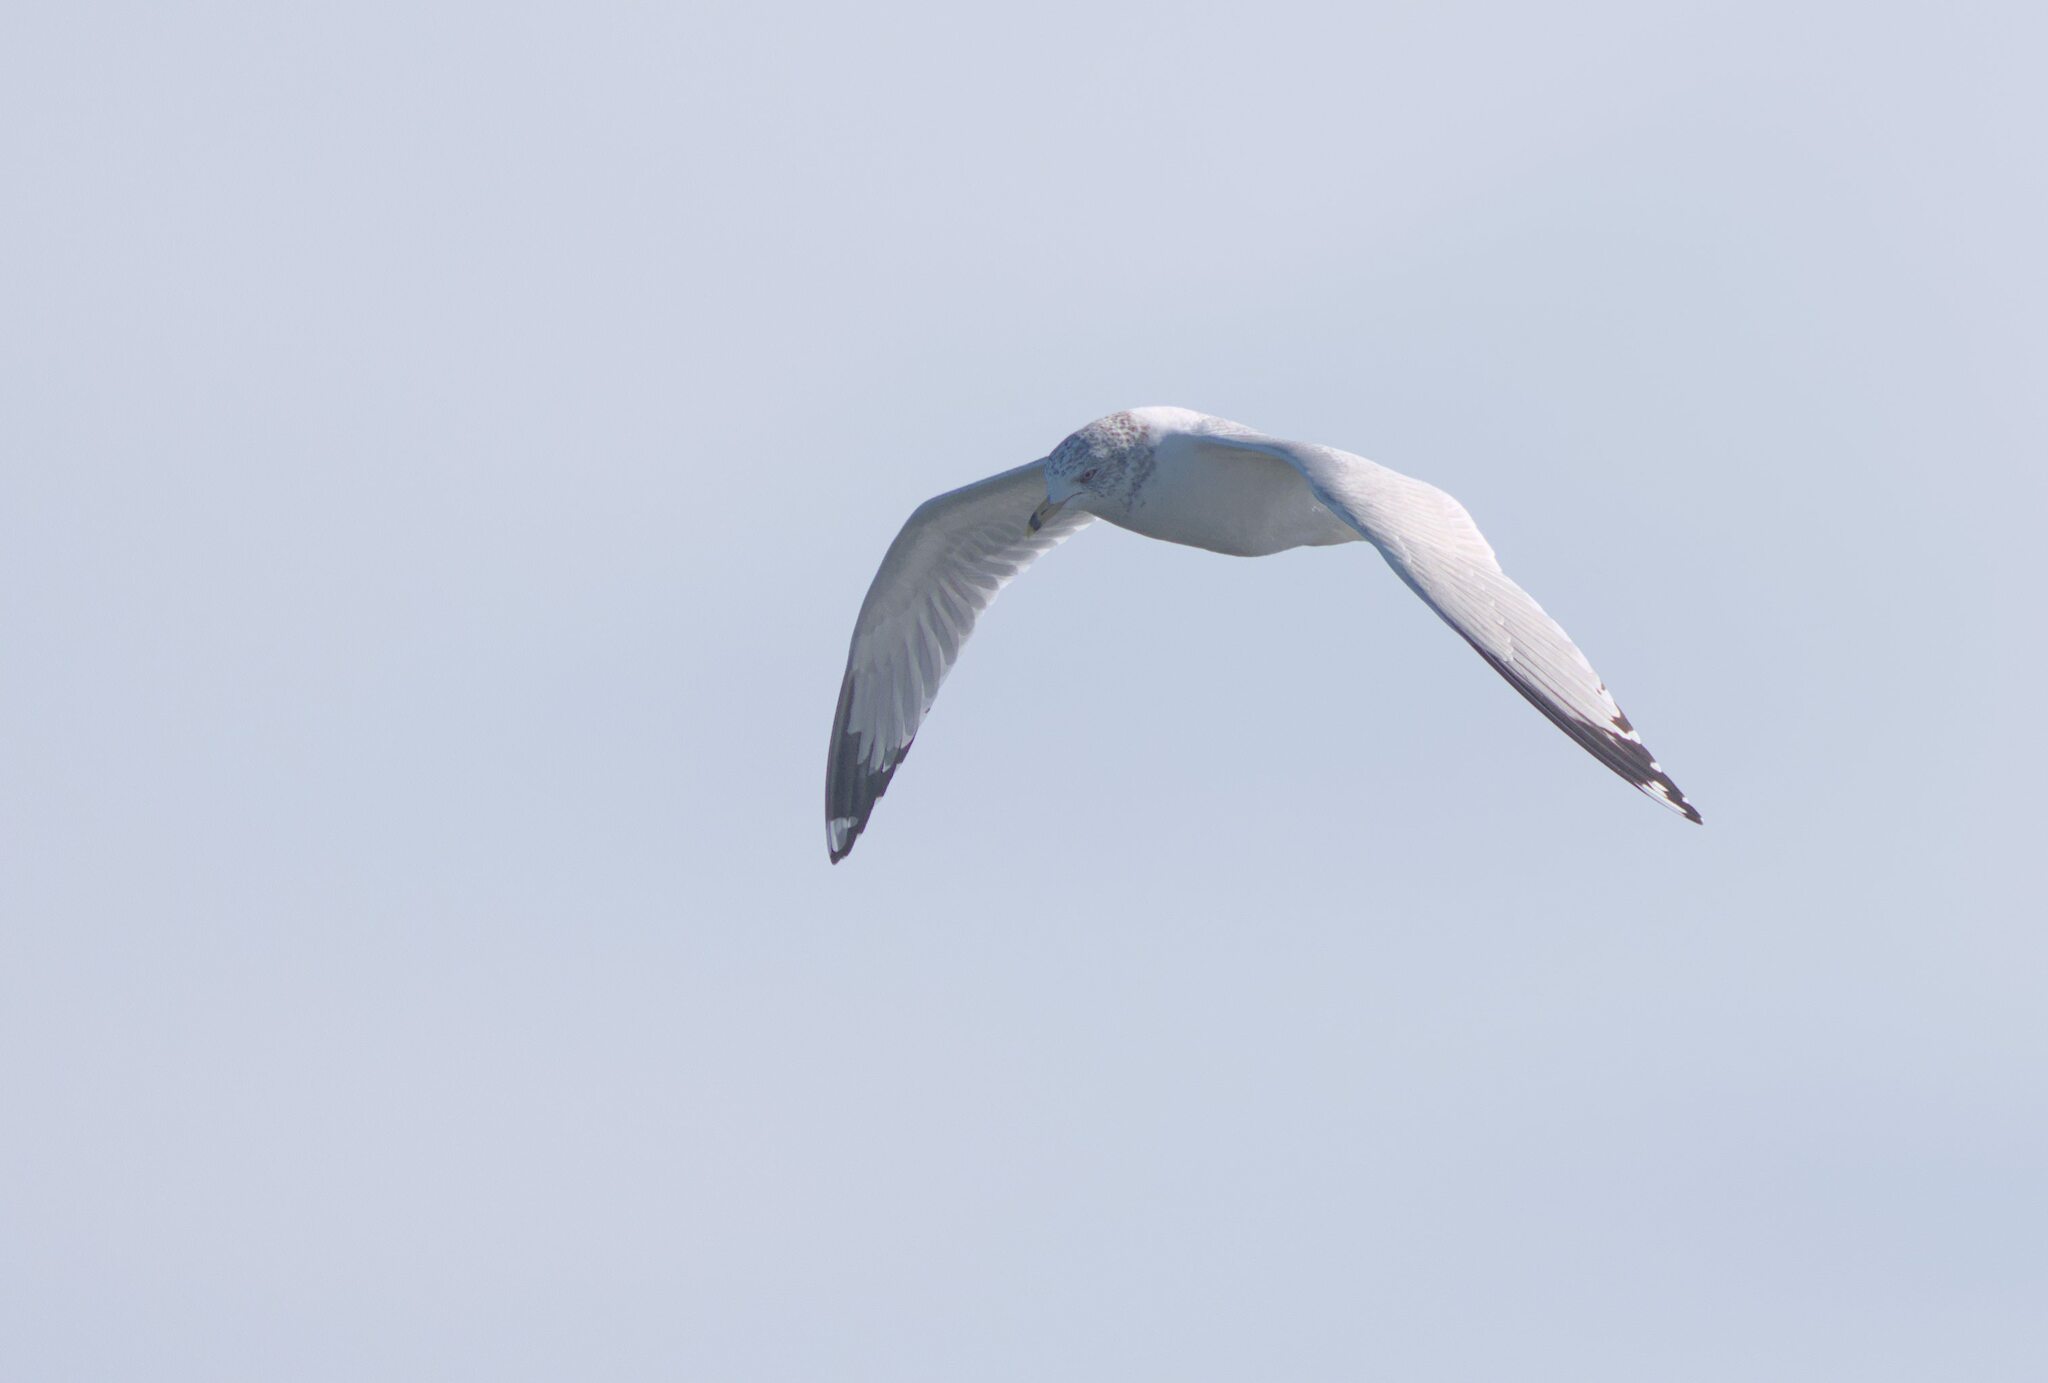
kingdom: Animalia
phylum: Chordata
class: Aves
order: Charadriiformes
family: Laridae
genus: Larus
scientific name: Larus delawarensis
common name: Ring-billed gull
